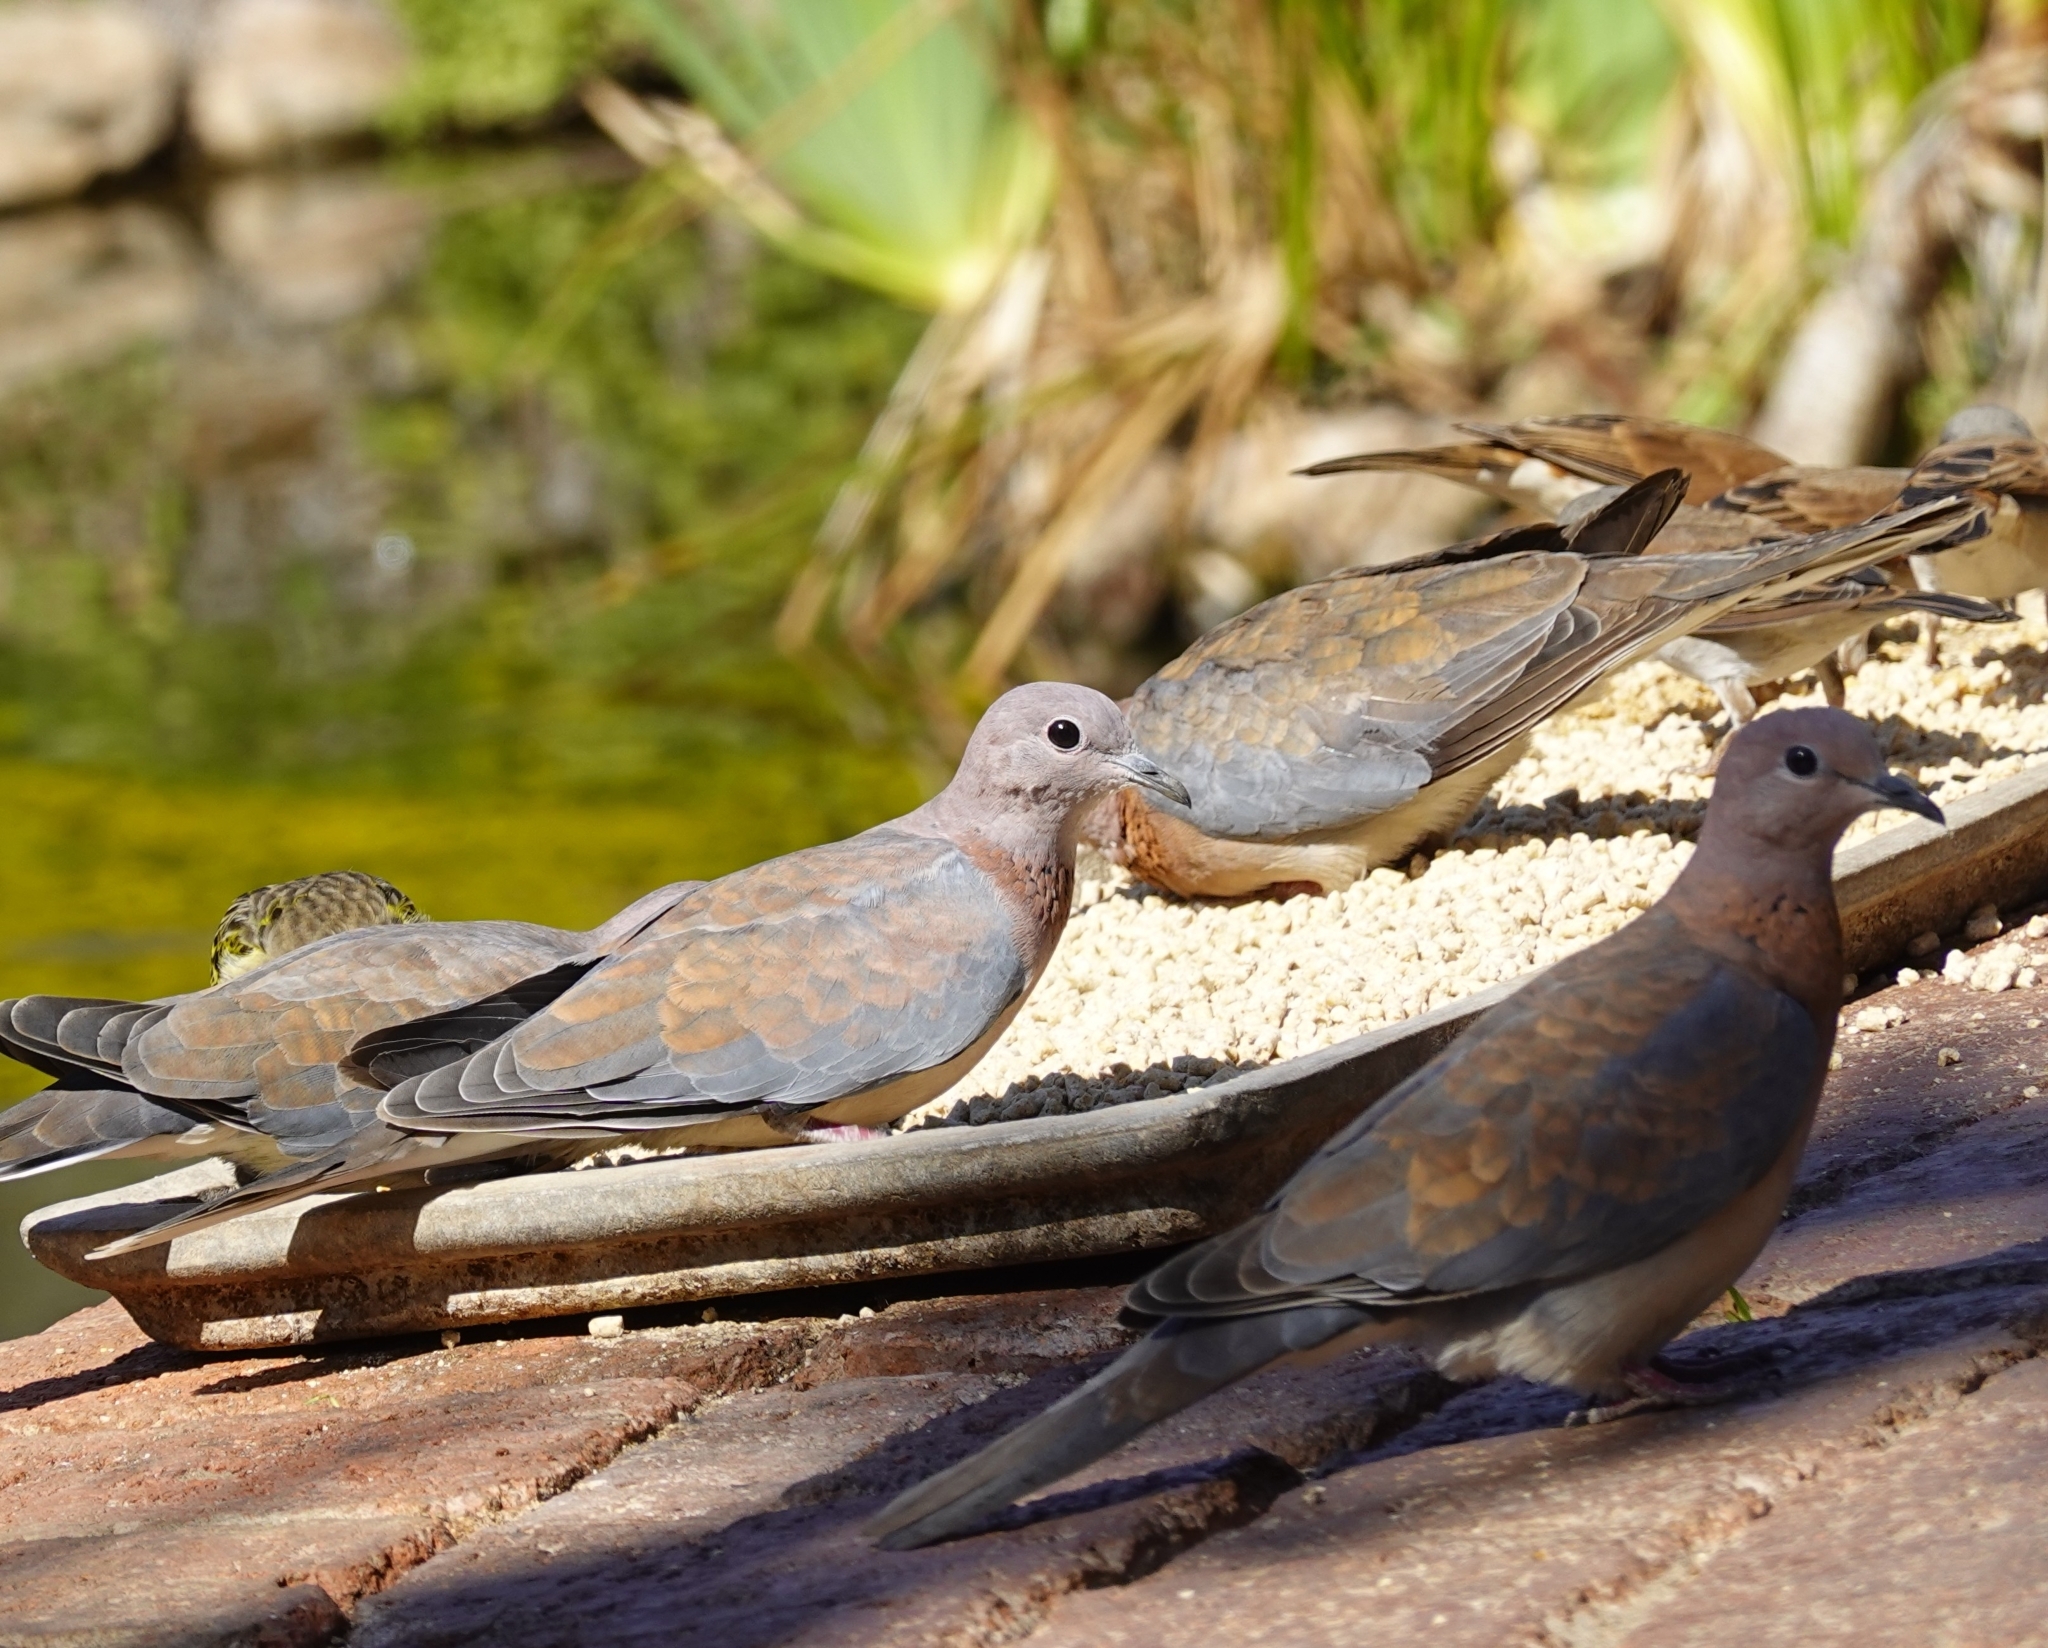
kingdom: Animalia
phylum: Chordata
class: Aves
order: Columbiformes
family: Columbidae
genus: Spilopelia
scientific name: Spilopelia senegalensis
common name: Laughing dove
